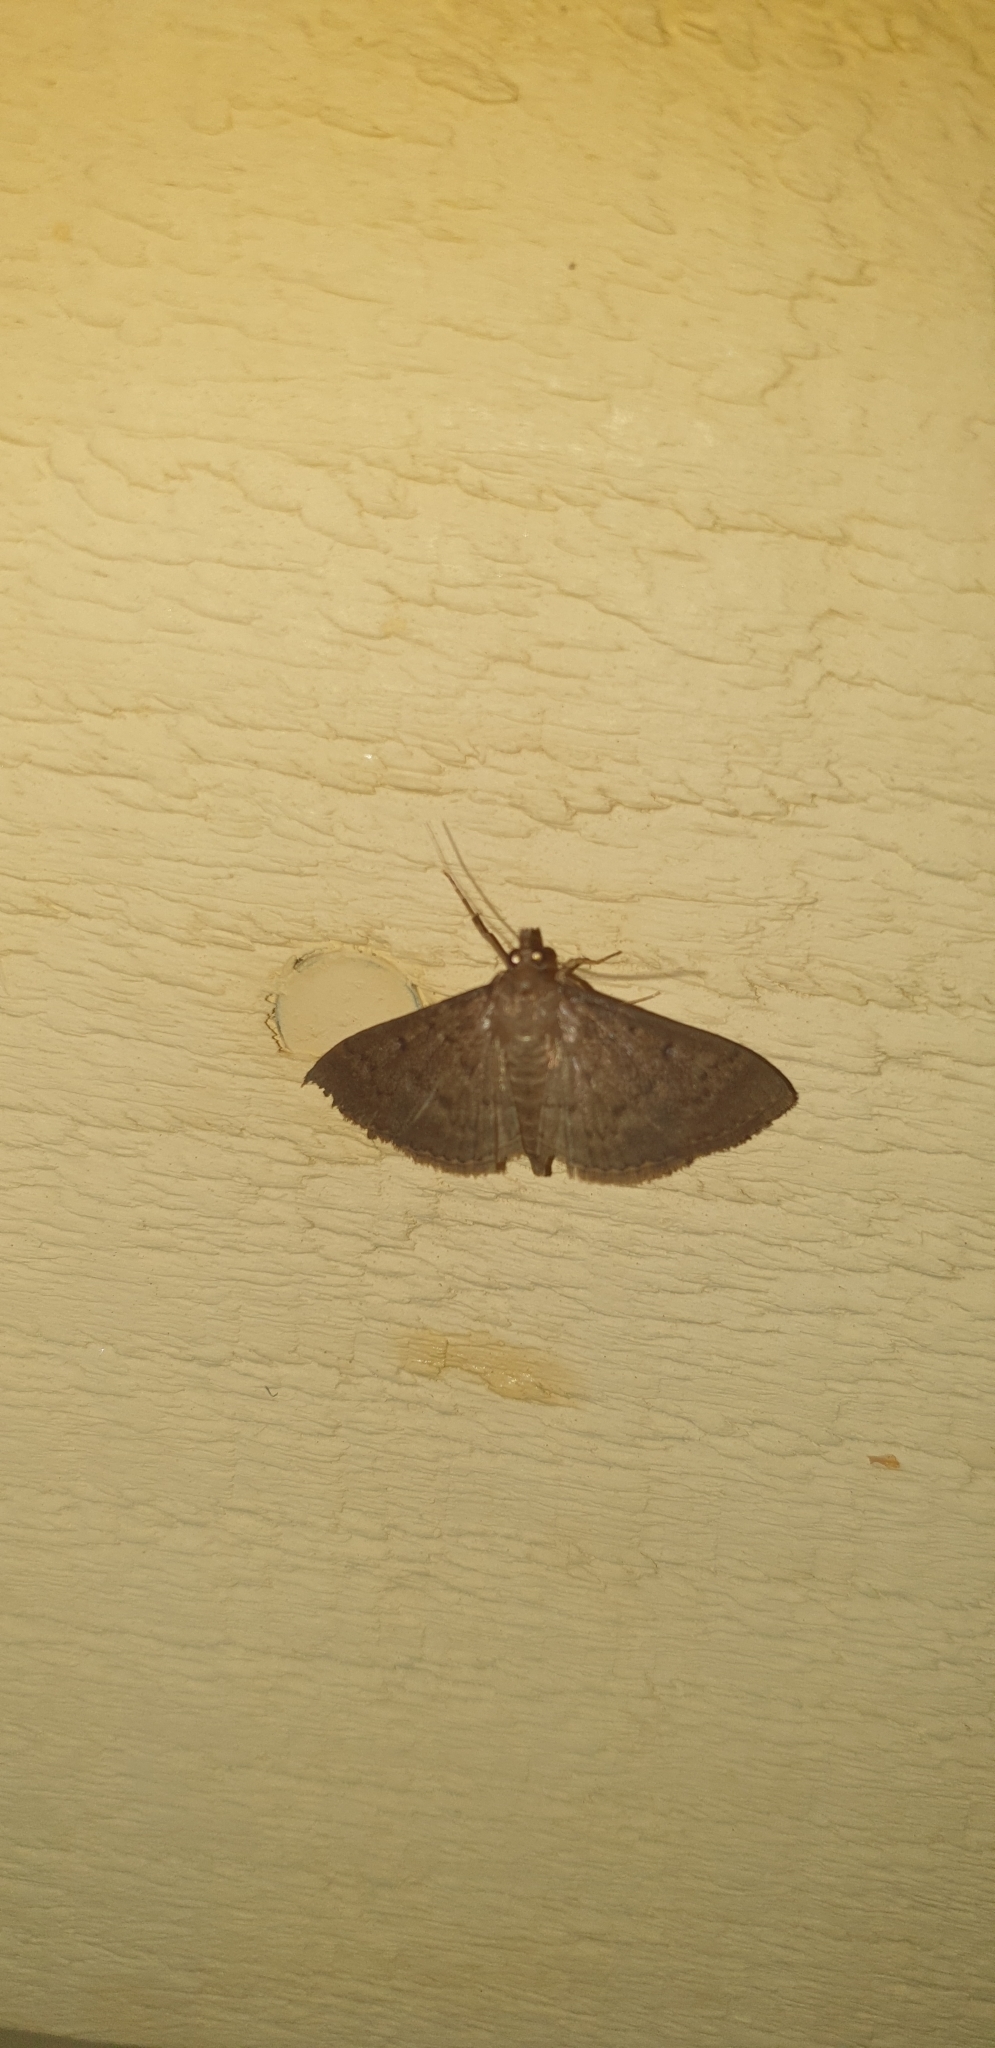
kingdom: Animalia
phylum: Arthropoda
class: Insecta
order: Lepidoptera
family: Crambidae
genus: Herpetogramma
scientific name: Herpetogramma licarsisalis
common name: Grass webworm
